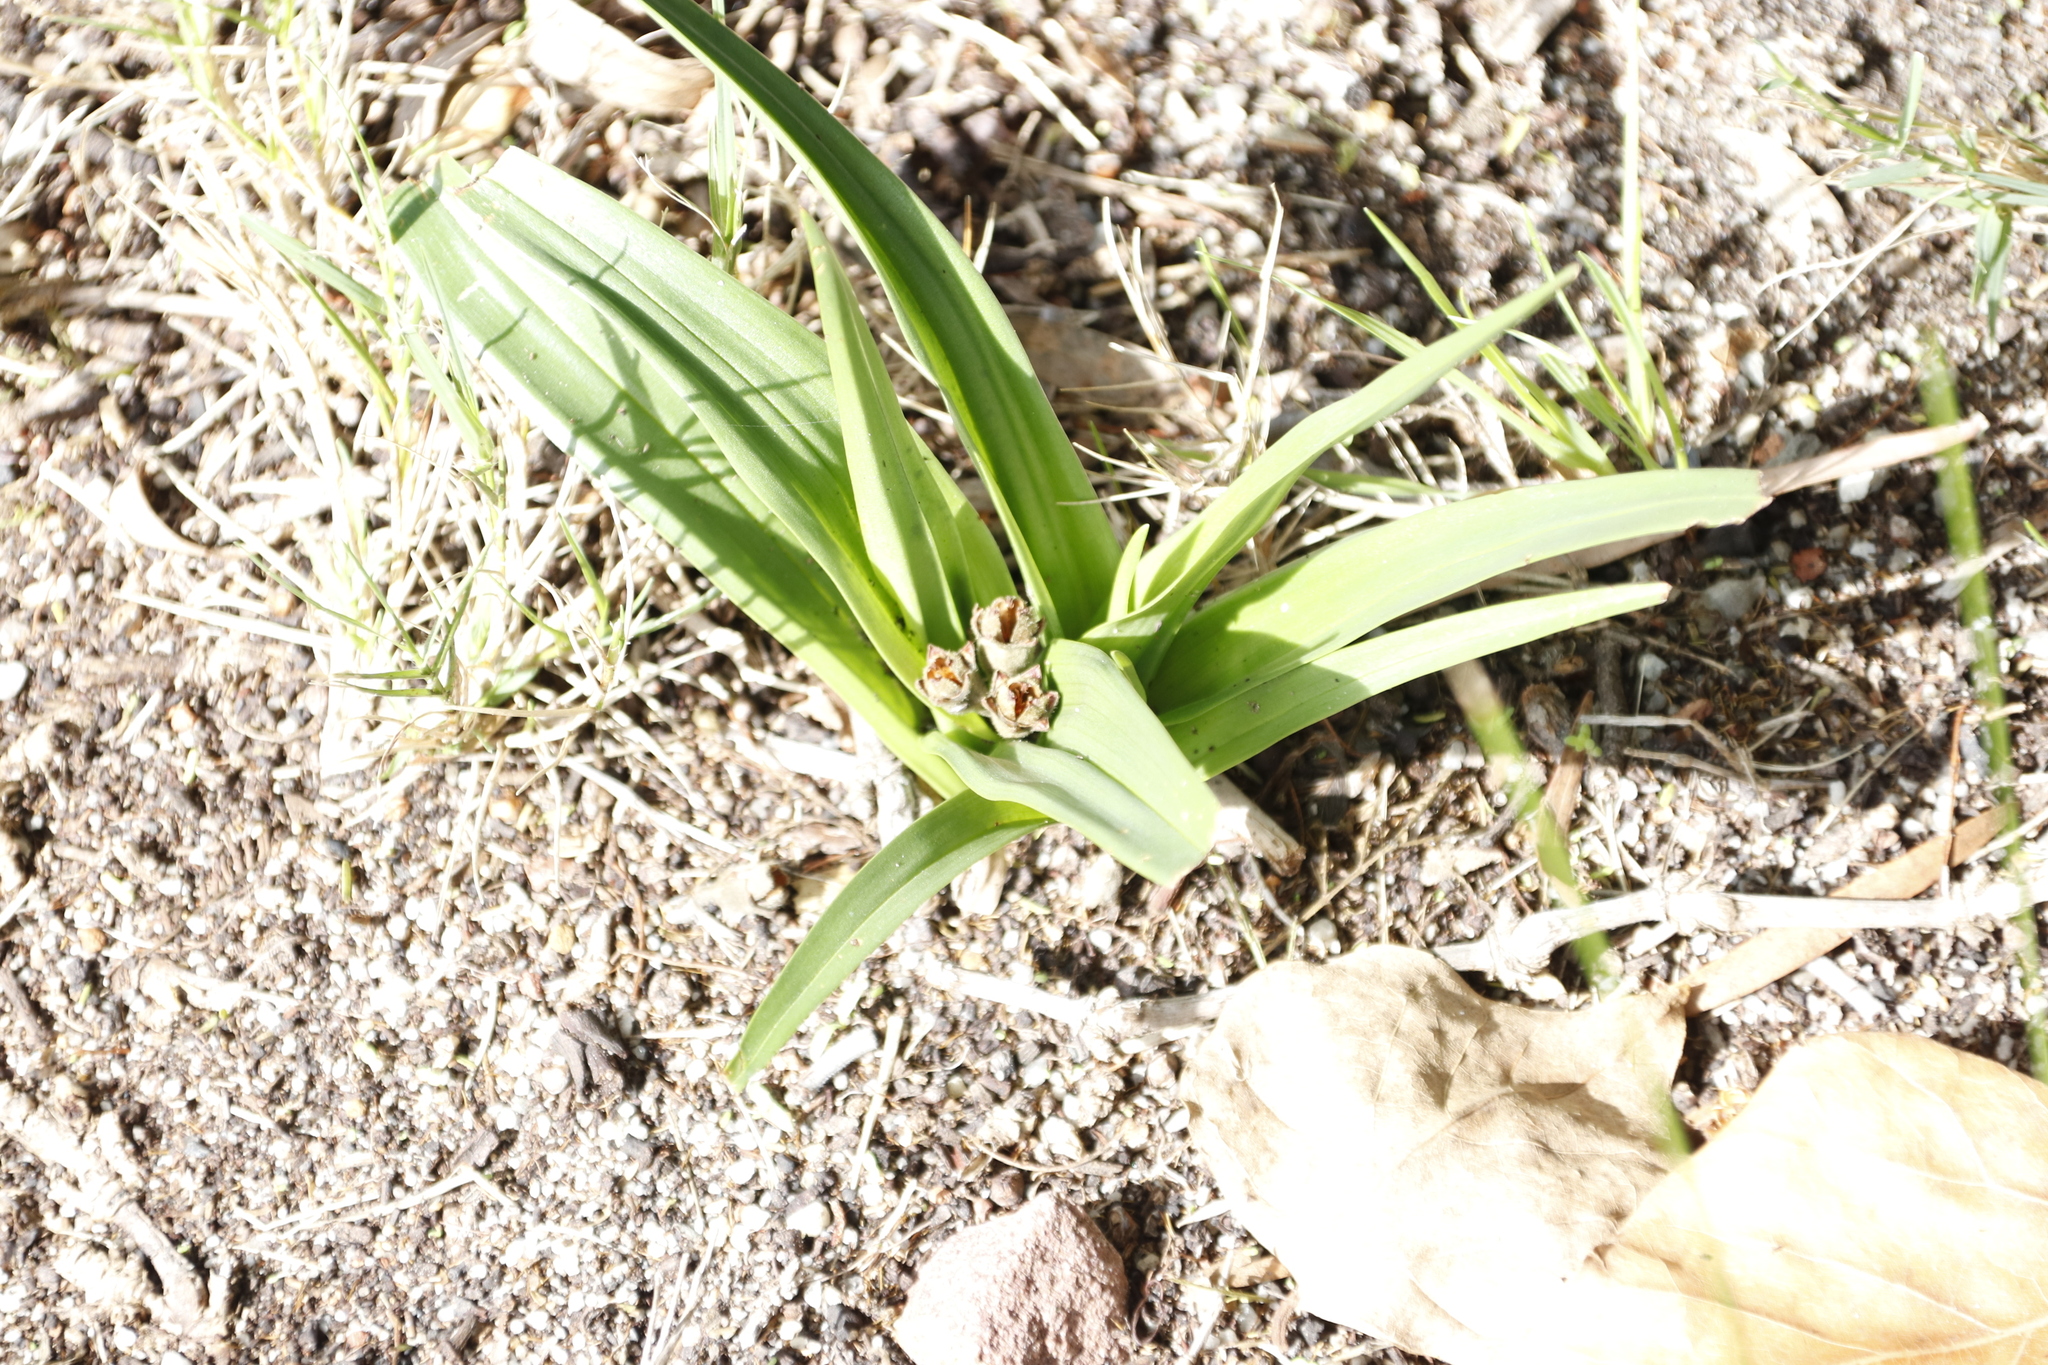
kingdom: Plantae
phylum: Tracheophyta
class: Liliopsida
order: Liliales
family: Colchicaceae
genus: Colchicum
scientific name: Colchicum eucomoides
